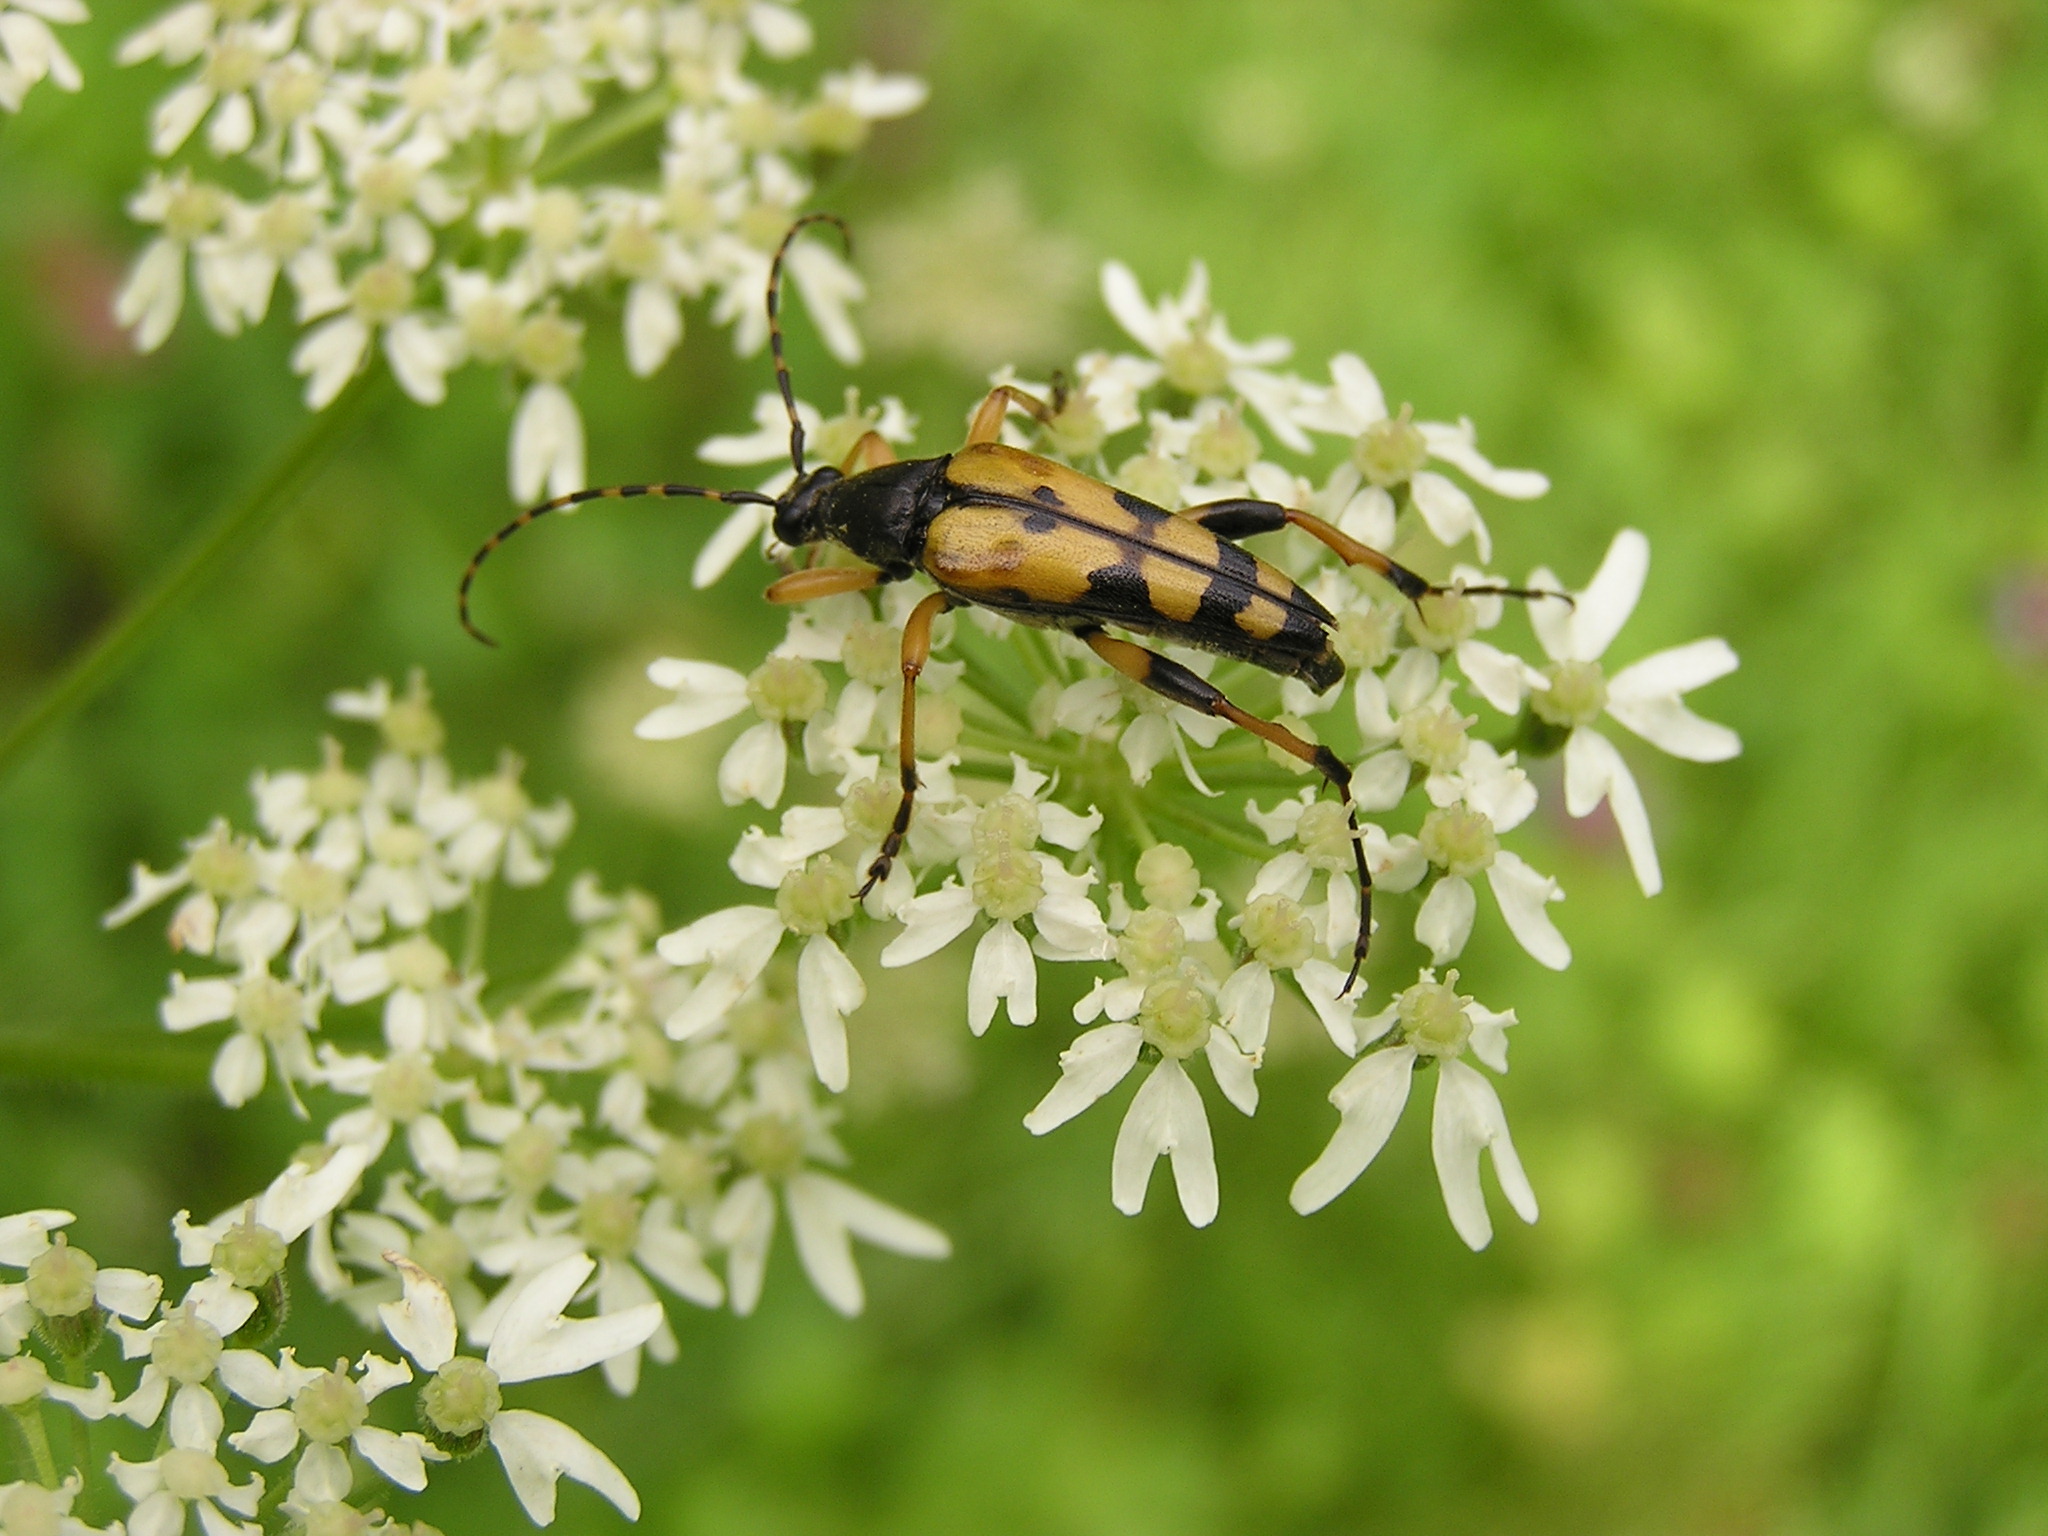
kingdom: Animalia
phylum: Arthropoda
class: Insecta
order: Coleoptera
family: Cerambycidae
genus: Rutpela
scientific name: Rutpela maculata
